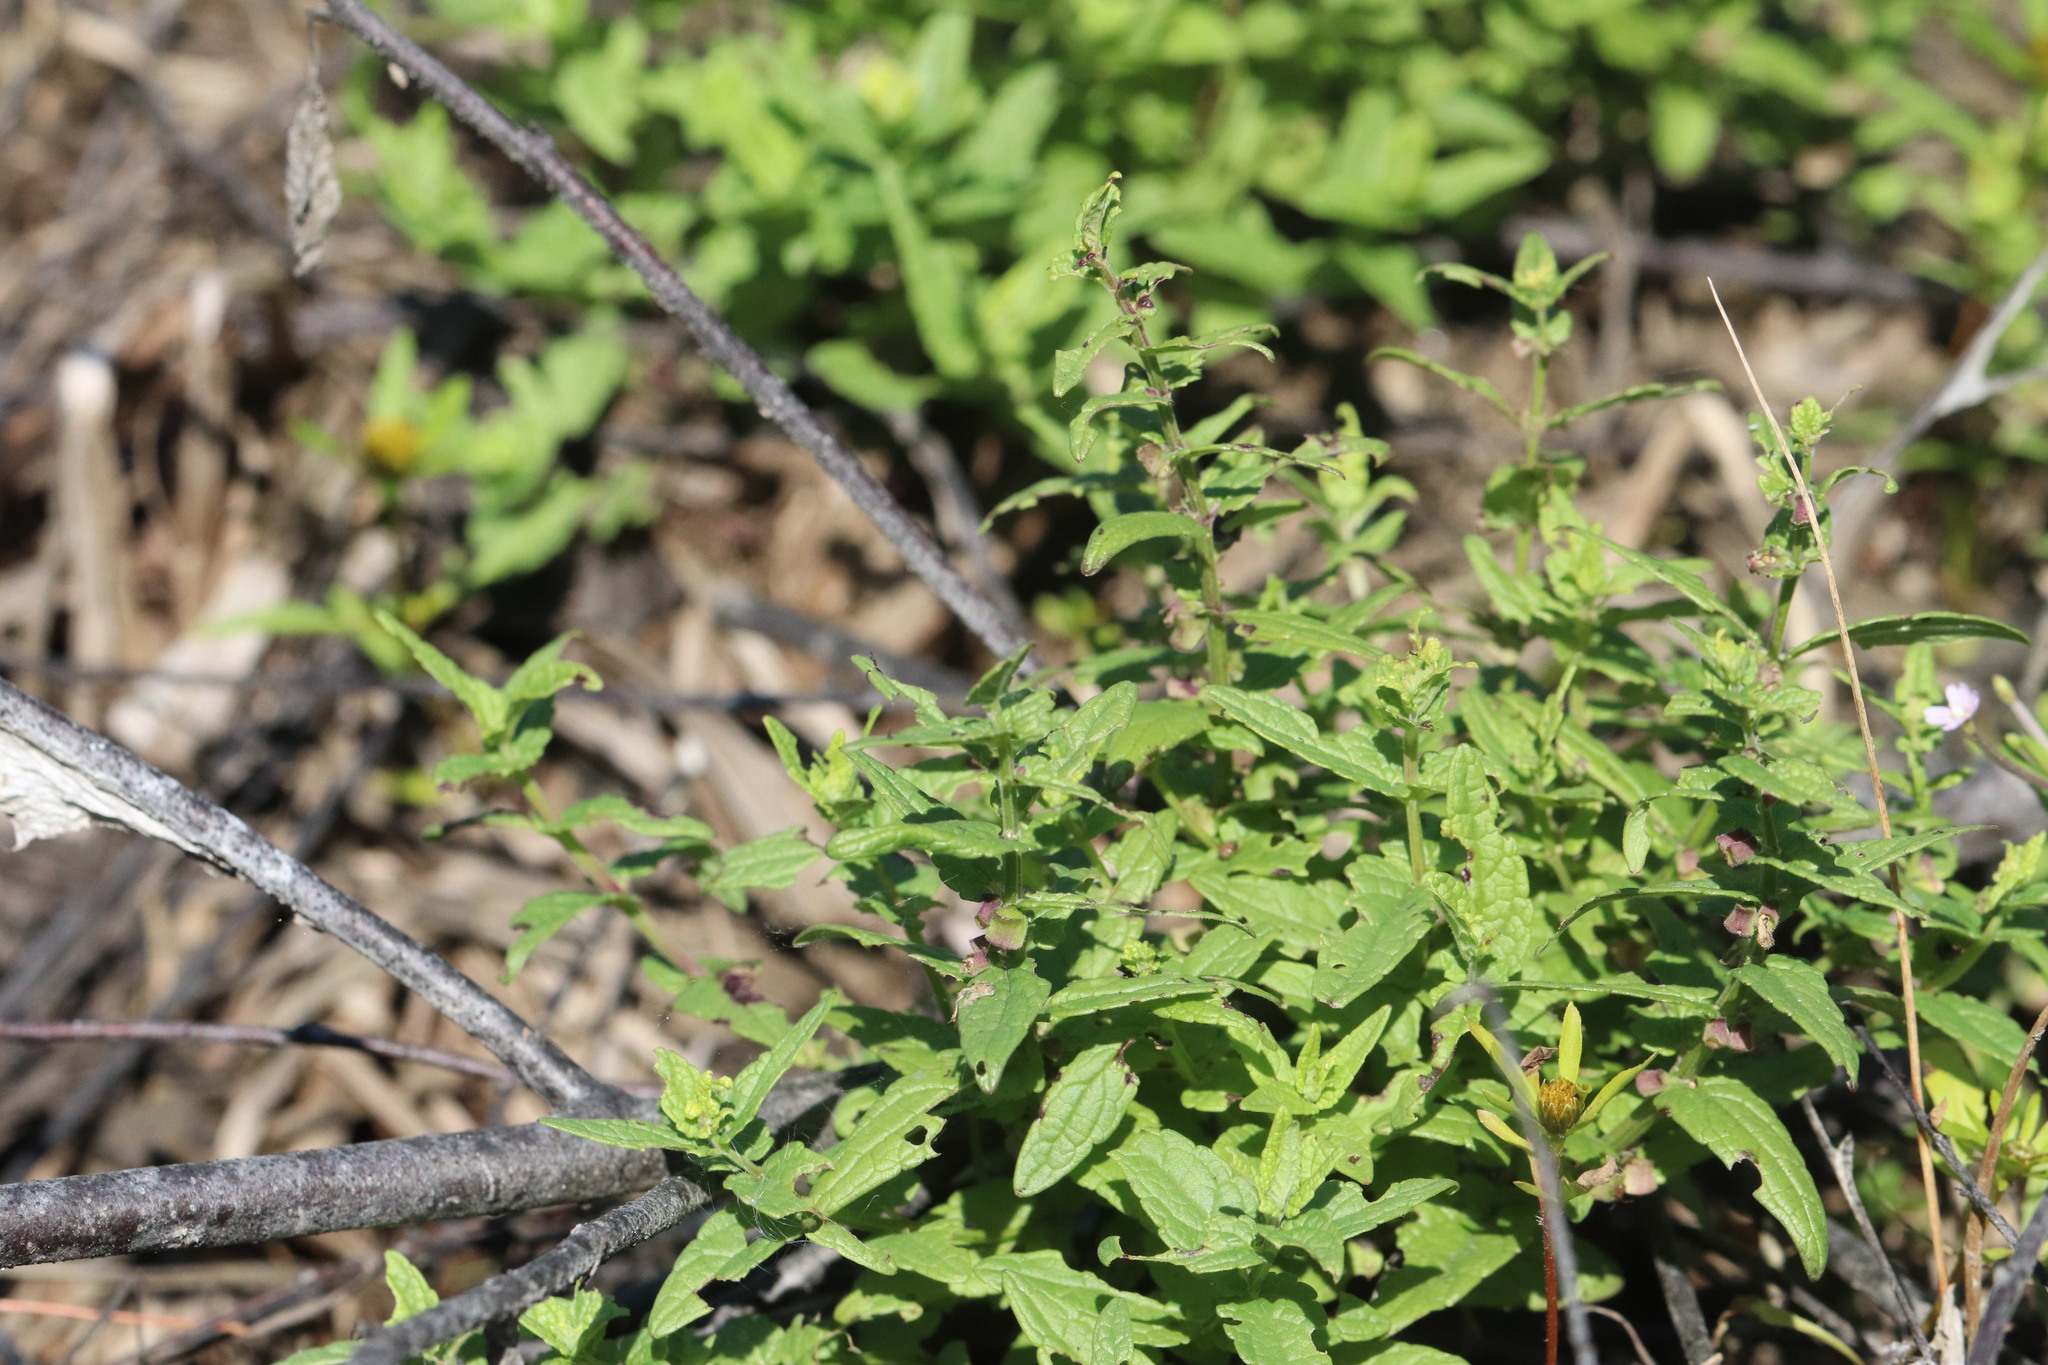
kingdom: Plantae
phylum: Tracheophyta
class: Magnoliopsida
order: Lamiales
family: Lamiaceae
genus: Scutellaria
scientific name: Scutellaria galericulata
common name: Skullcap
